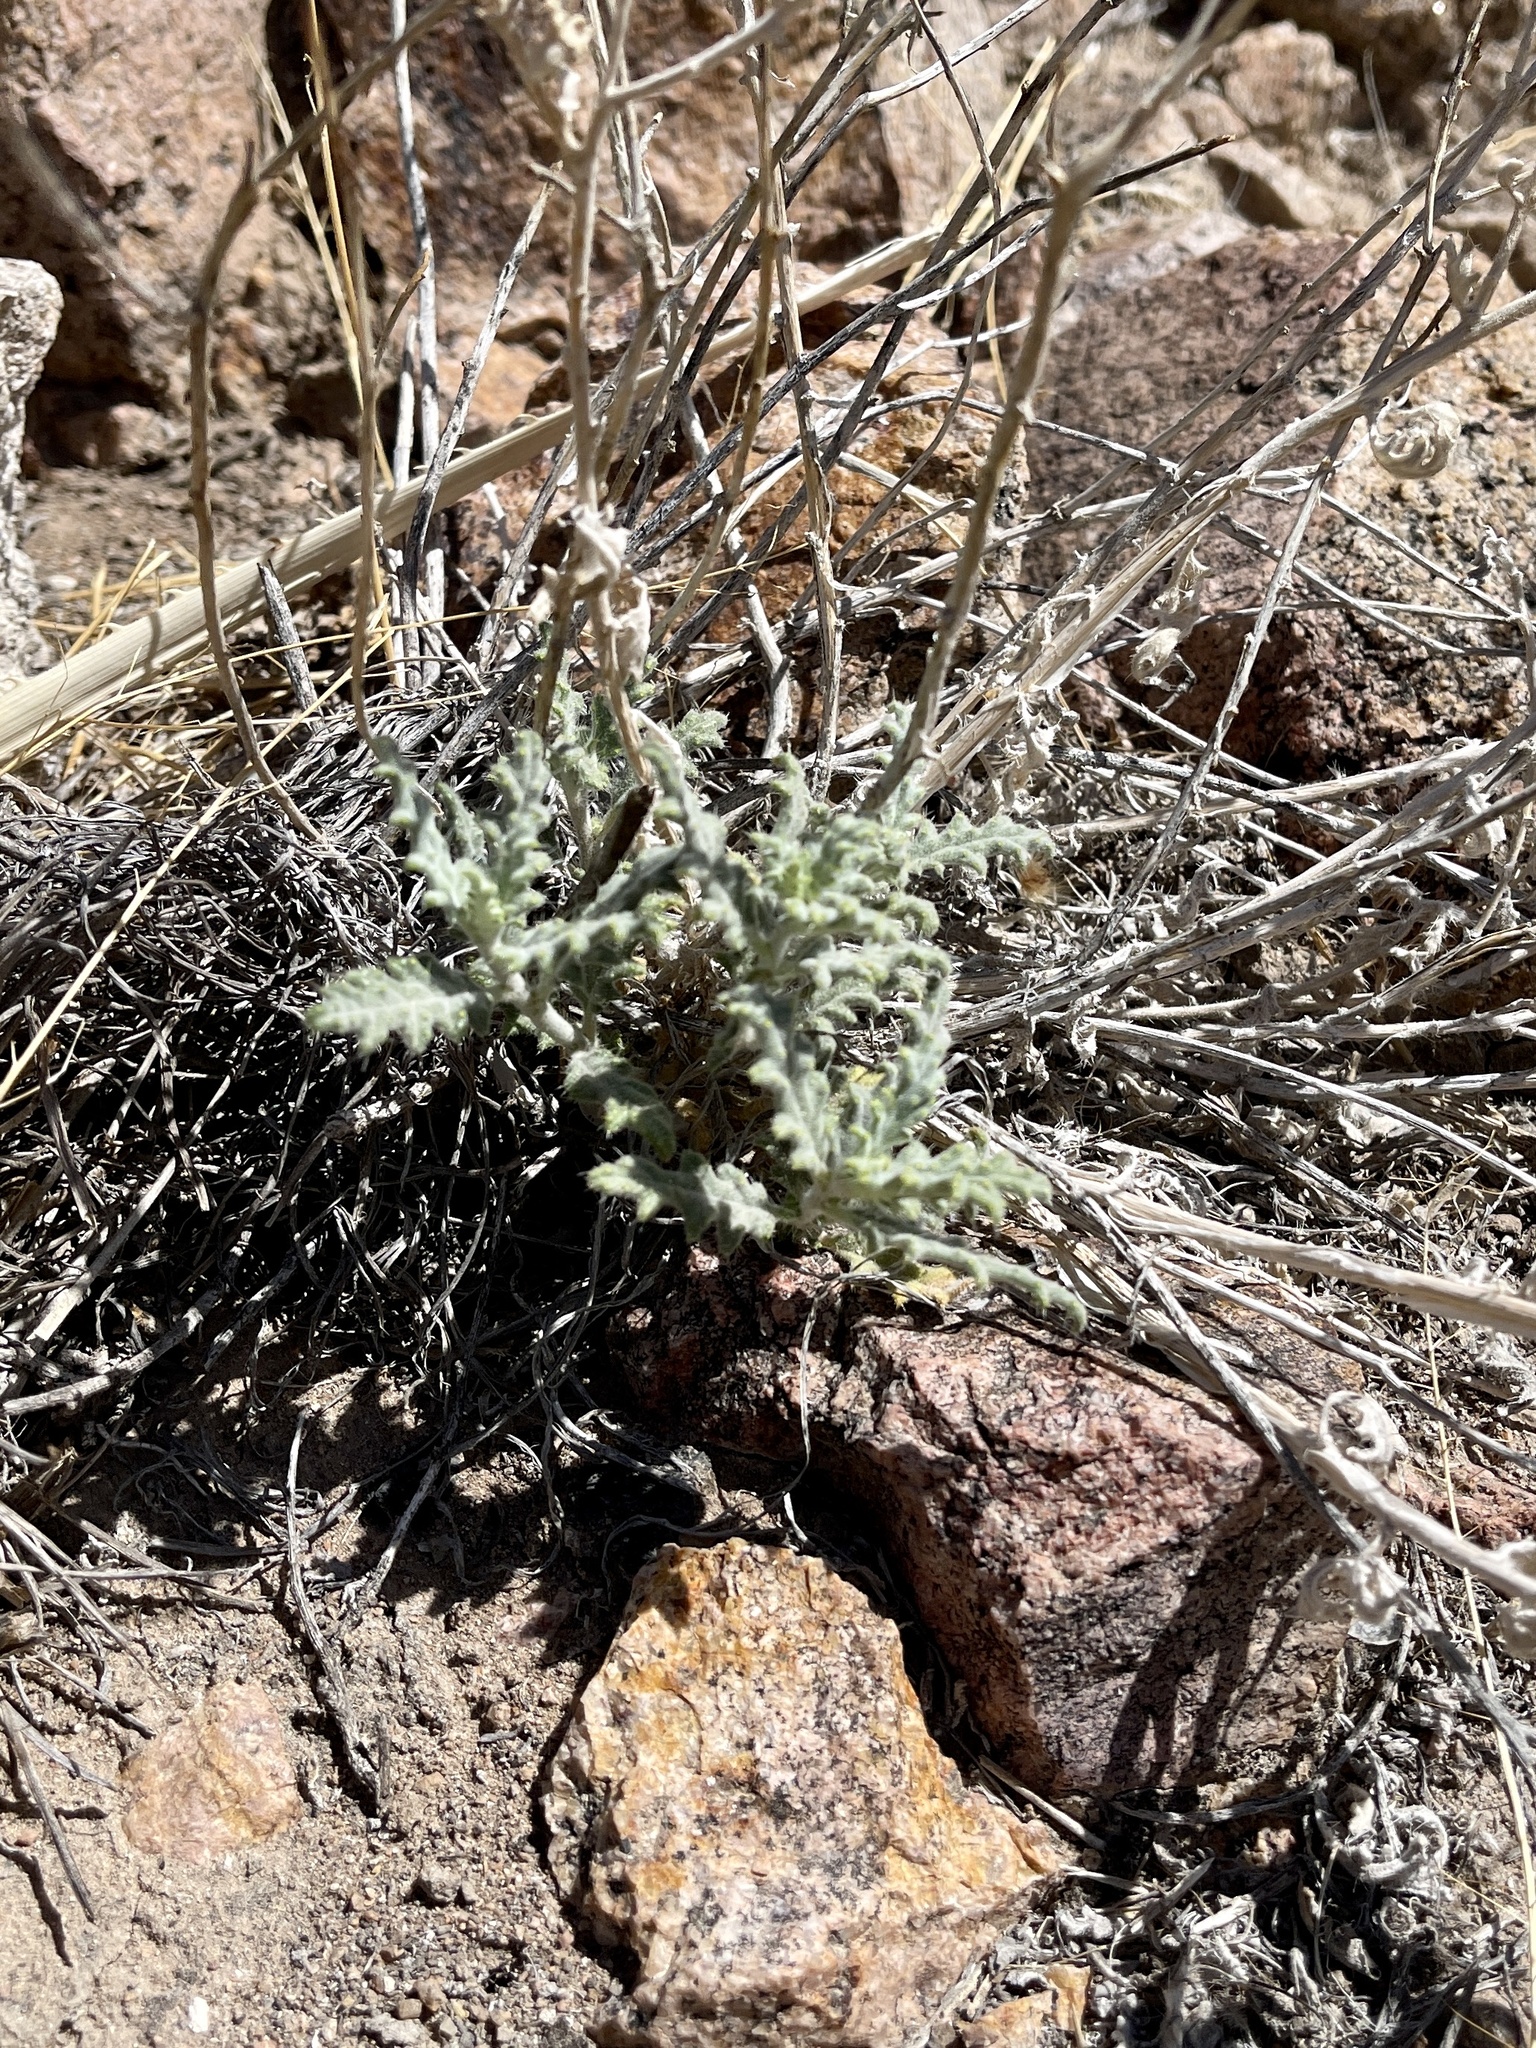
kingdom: Plantae
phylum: Tracheophyta
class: Magnoliopsida
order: Cornales
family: Loasaceae
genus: Cevallia
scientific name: Cevallia sinuata
